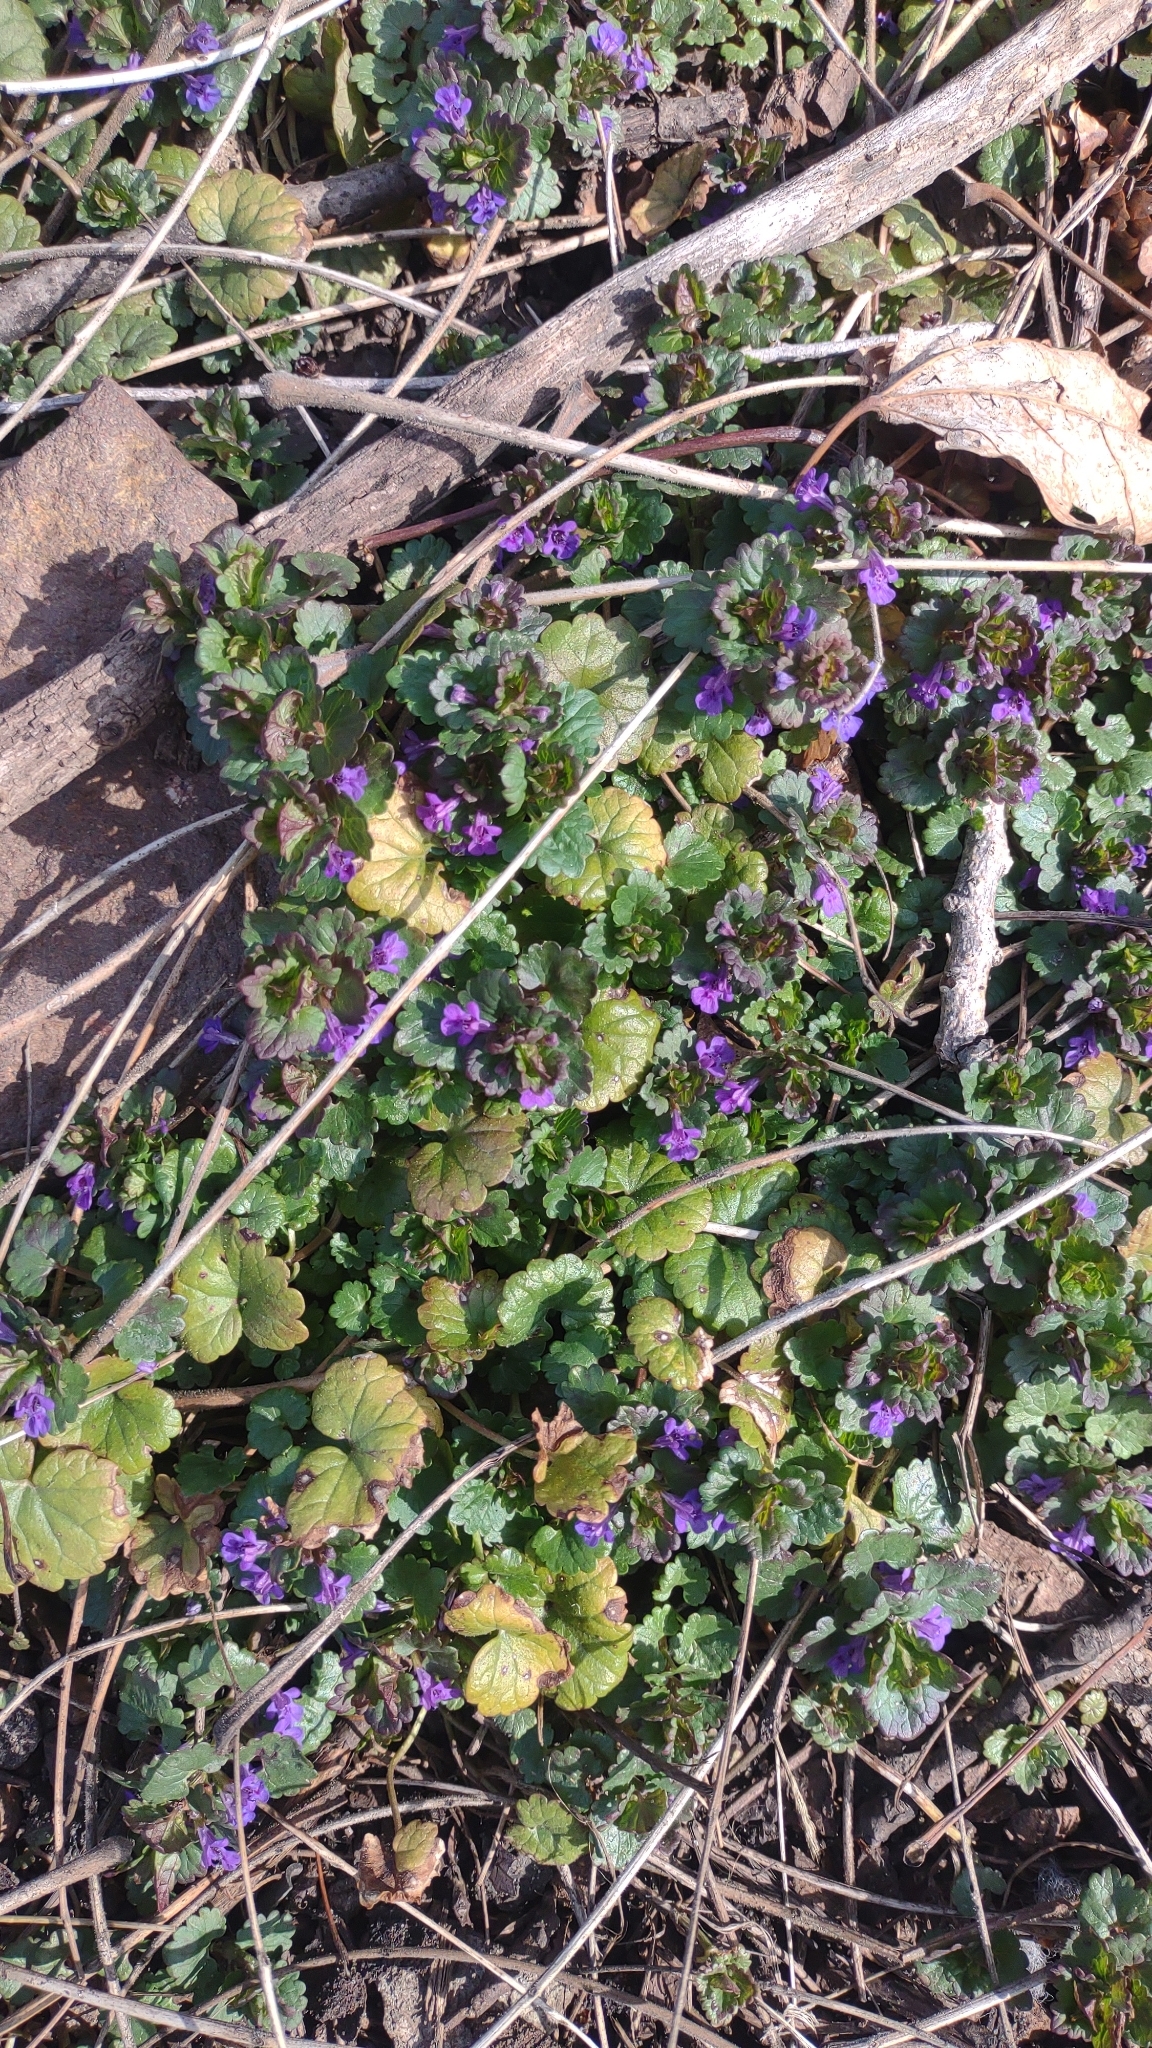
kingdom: Plantae
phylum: Tracheophyta
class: Magnoliopsida
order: Lamiales
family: Lamiaceae
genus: Glechoma
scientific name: Glechoma hederacea
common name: Ground ivy
